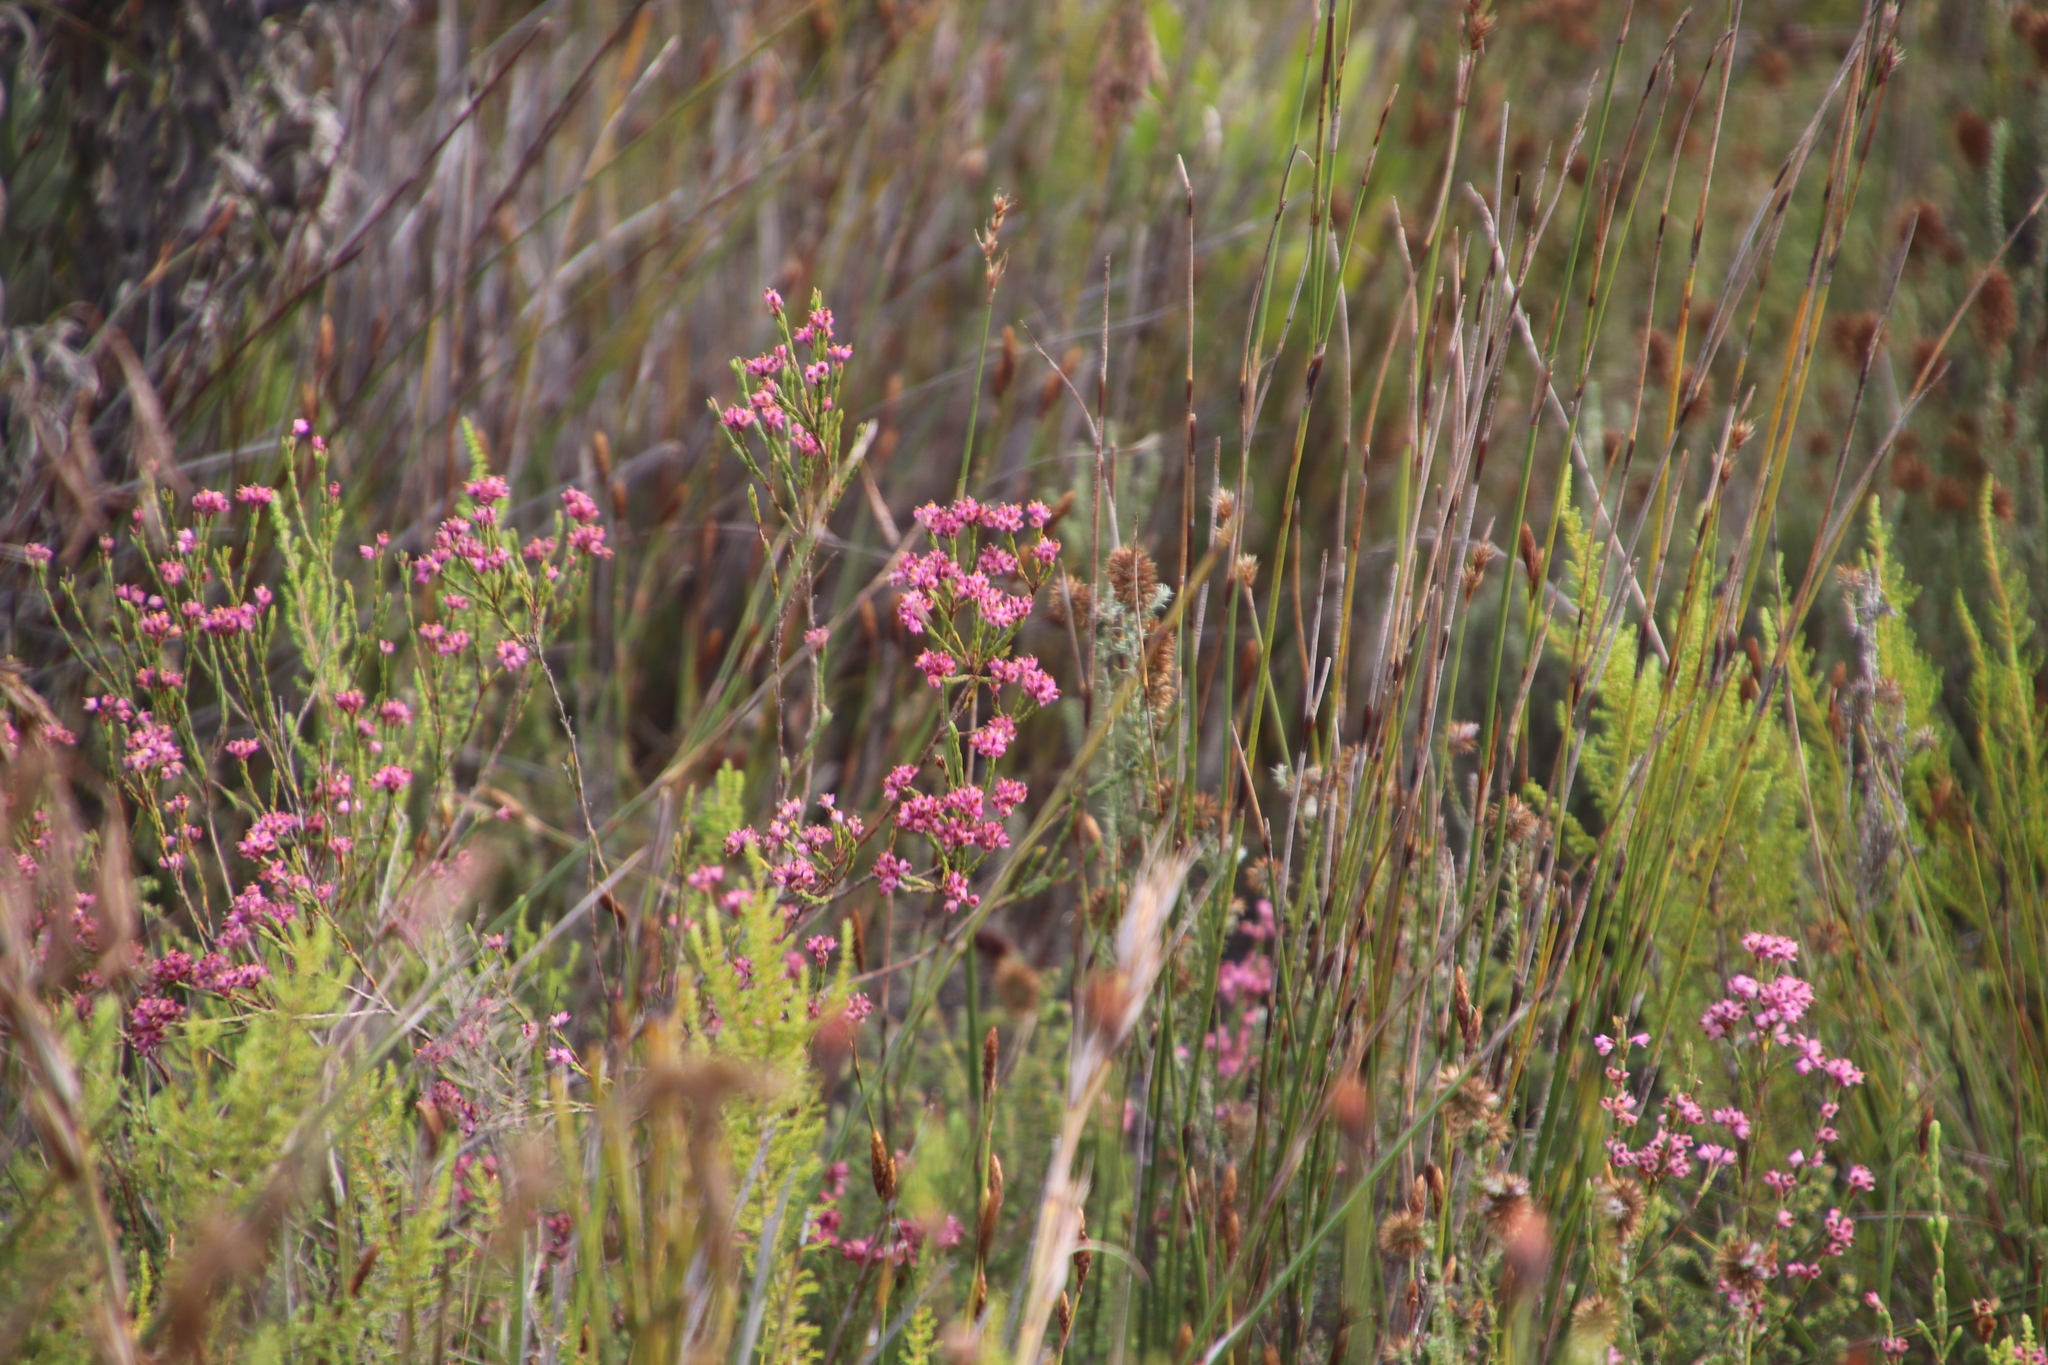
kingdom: Plantae
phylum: Tracheophyta
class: Magnoliopsida
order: Ericales
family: Ericaceae
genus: Erica
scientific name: Erica corifolia
